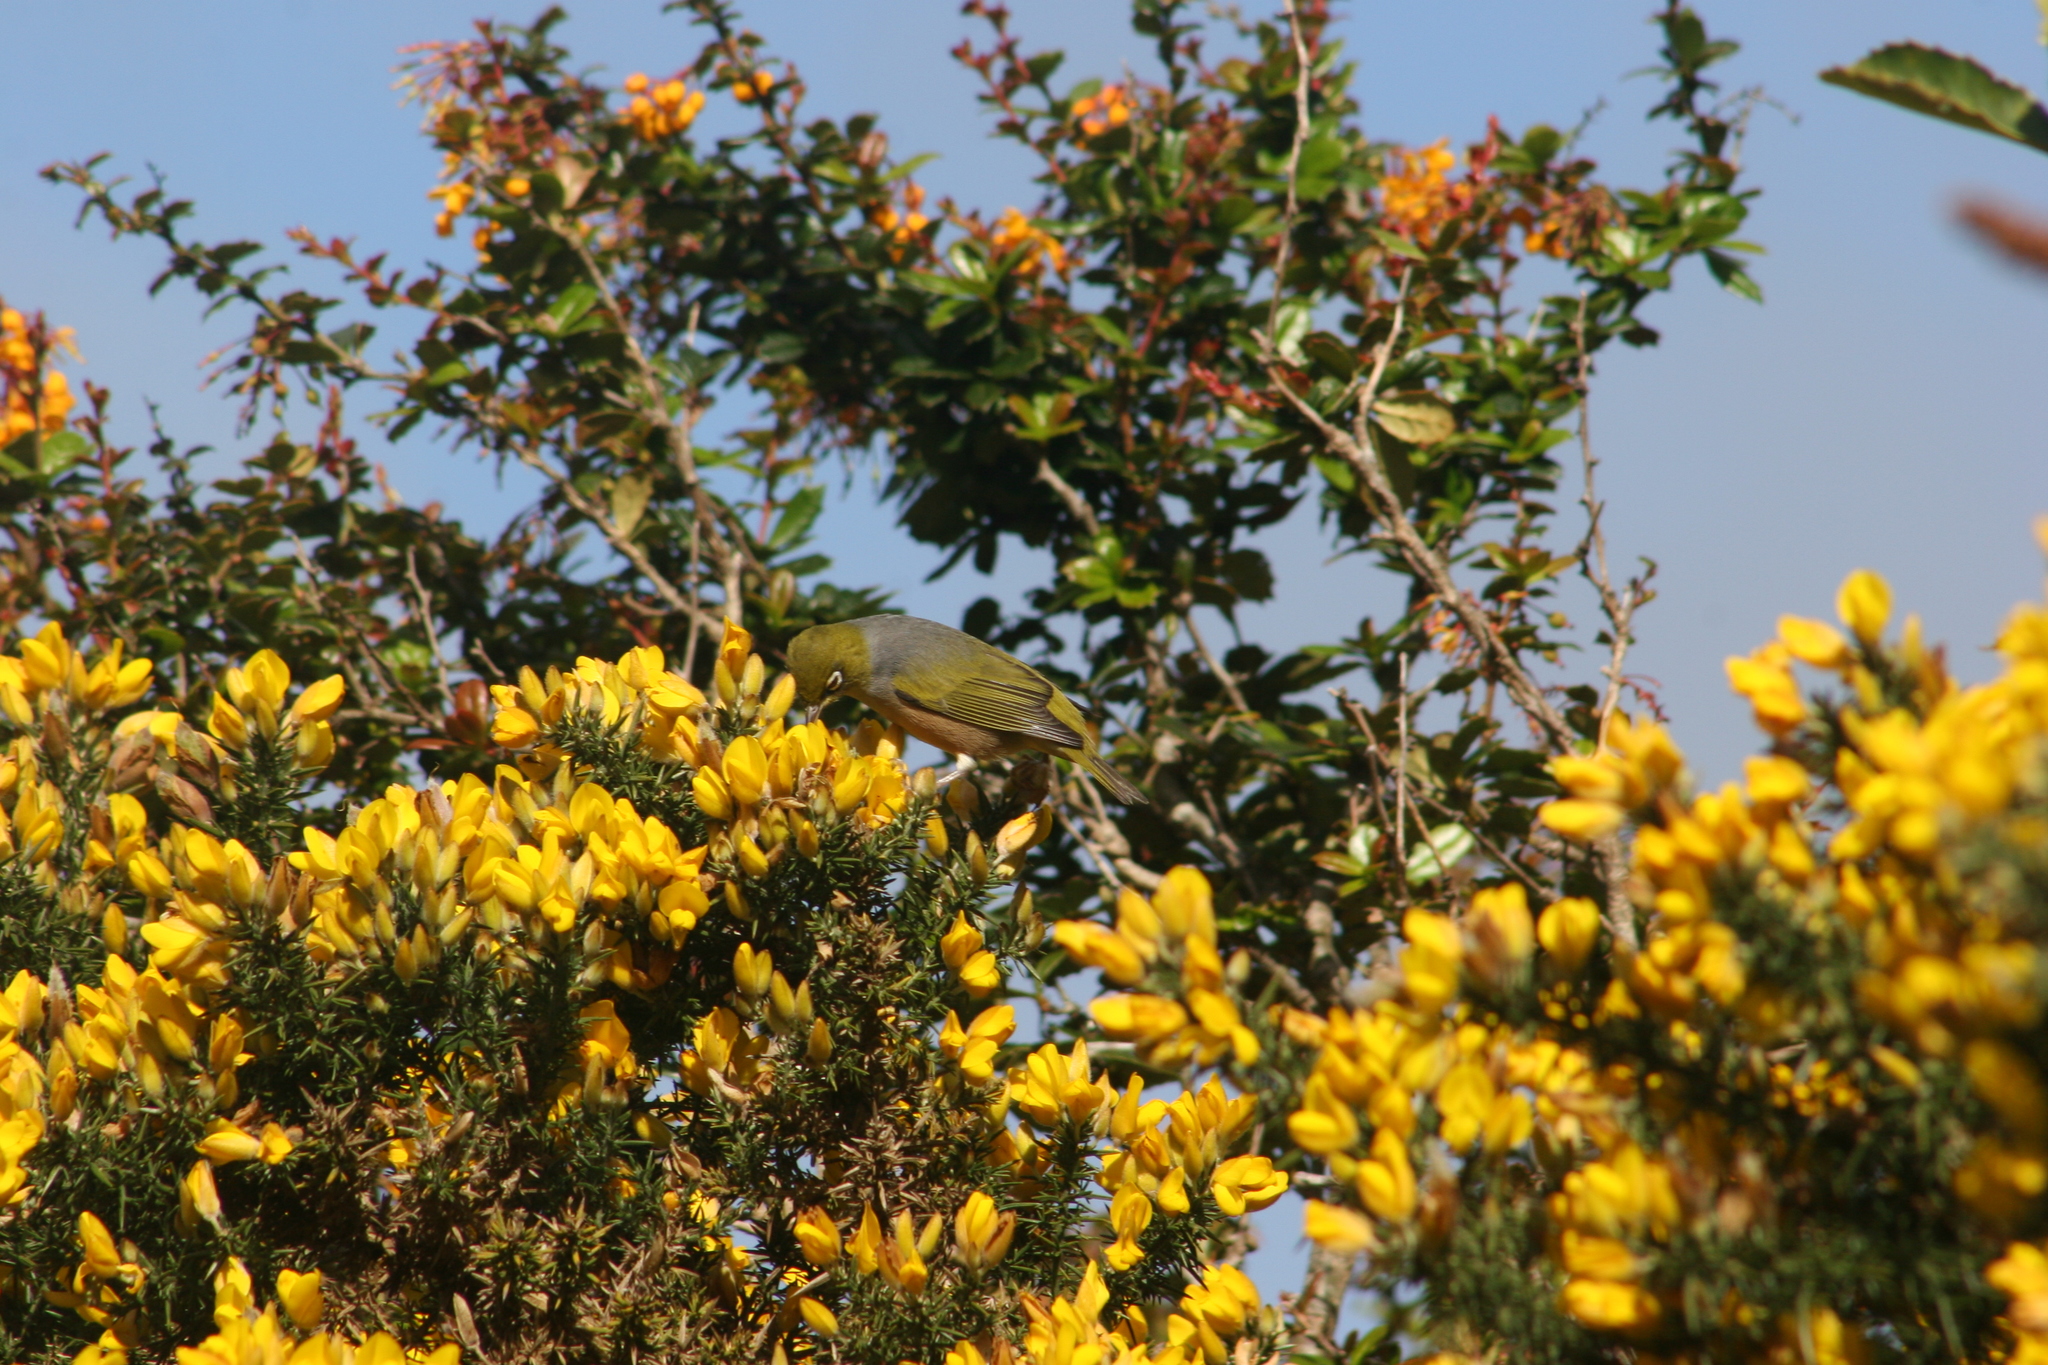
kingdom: Animalia
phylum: Chordata
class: Aves
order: Passeriformes
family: Zosteropidae
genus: Zosterops
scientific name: Zosterops lateralis
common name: Silvereye
